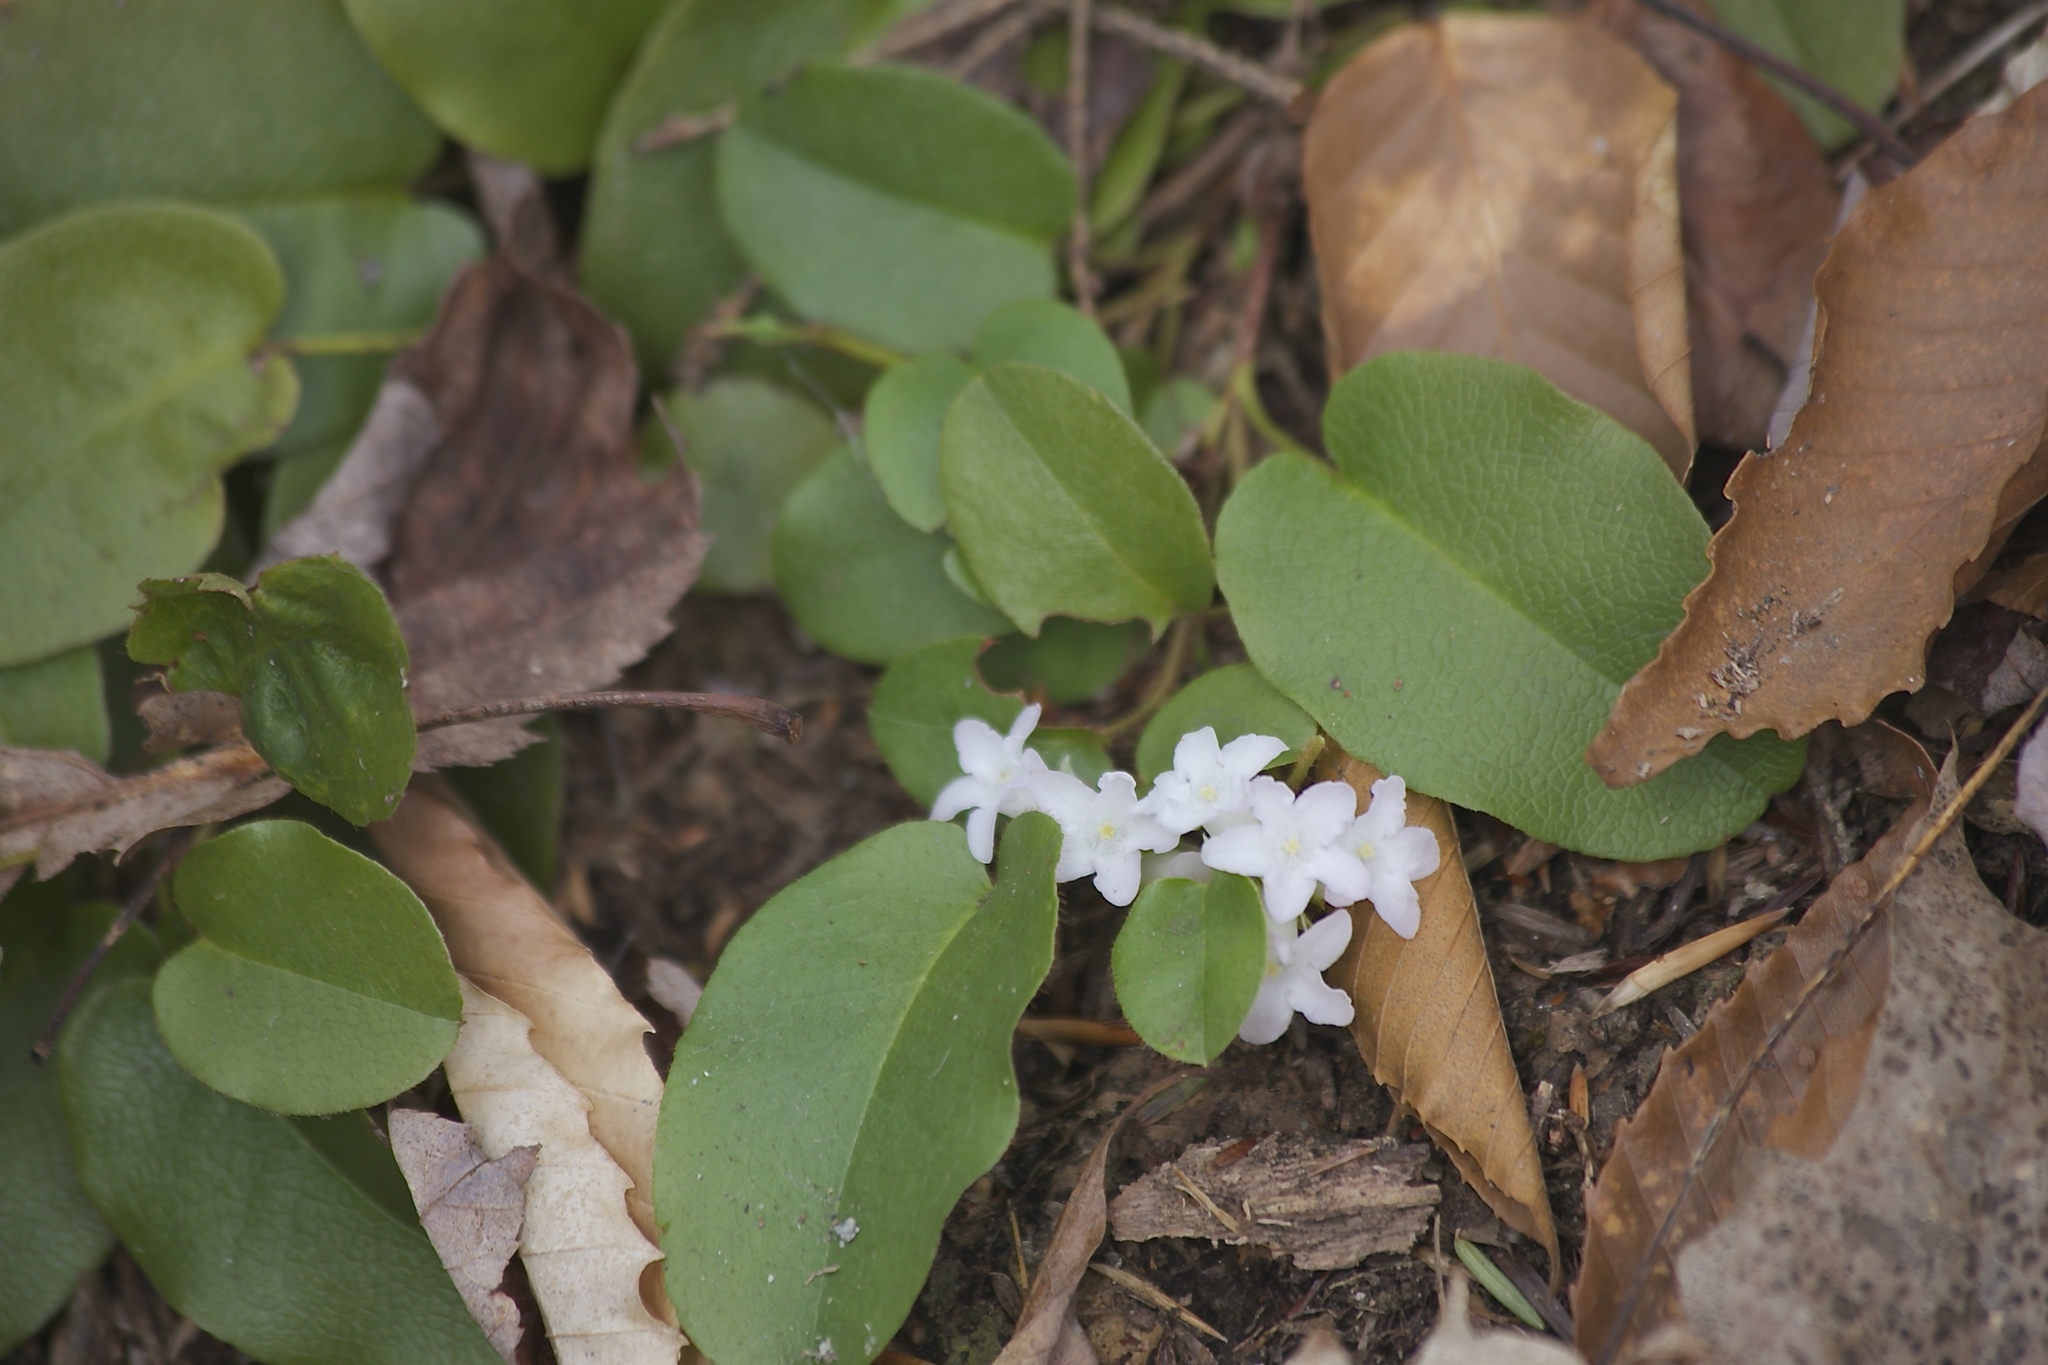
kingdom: Plantae
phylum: Tracheophyta
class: Magnoliopsida
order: Ericales
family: Ericaceae
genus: Epigaea
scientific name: Epigaea repens
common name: Gravelroot
